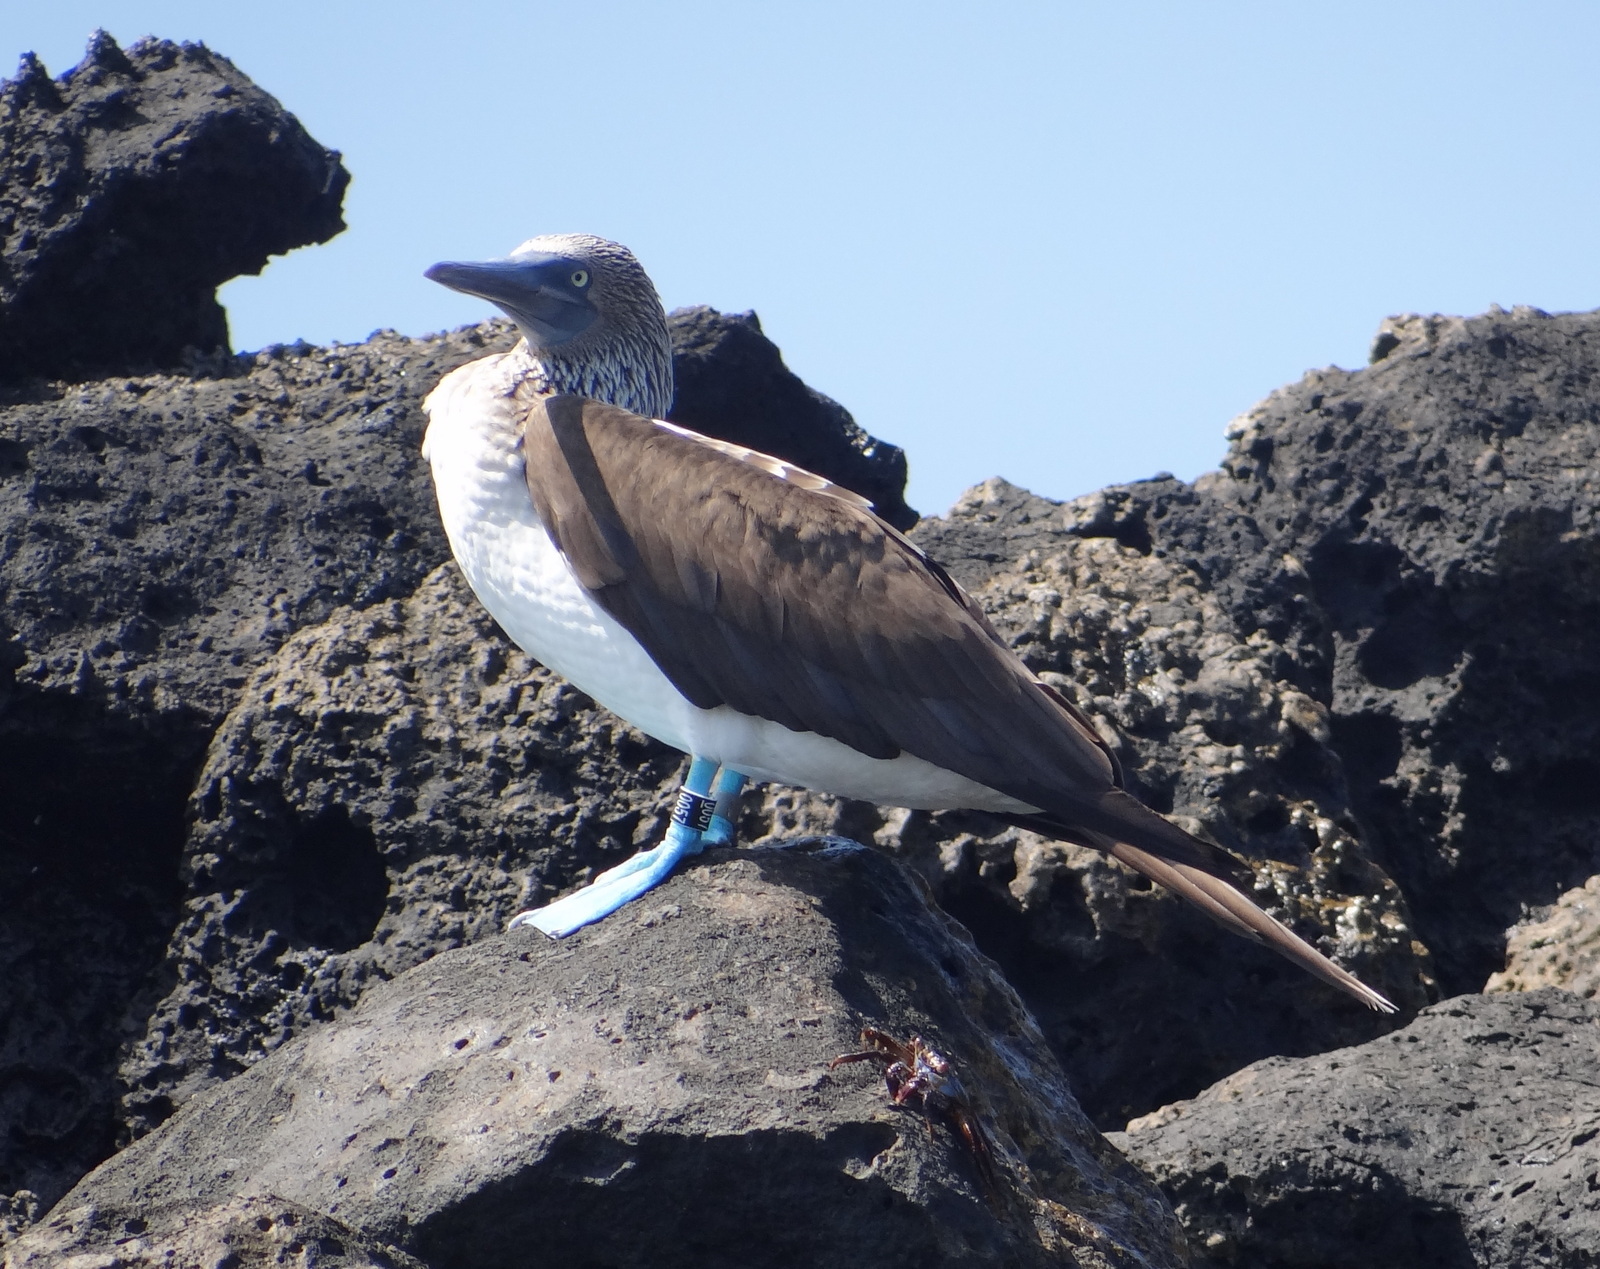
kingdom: Animalia
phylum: Chordata
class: Aves
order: Suliformes
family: Sulidae
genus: Sula
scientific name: Sula nebouxii
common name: Blue-footed booby
